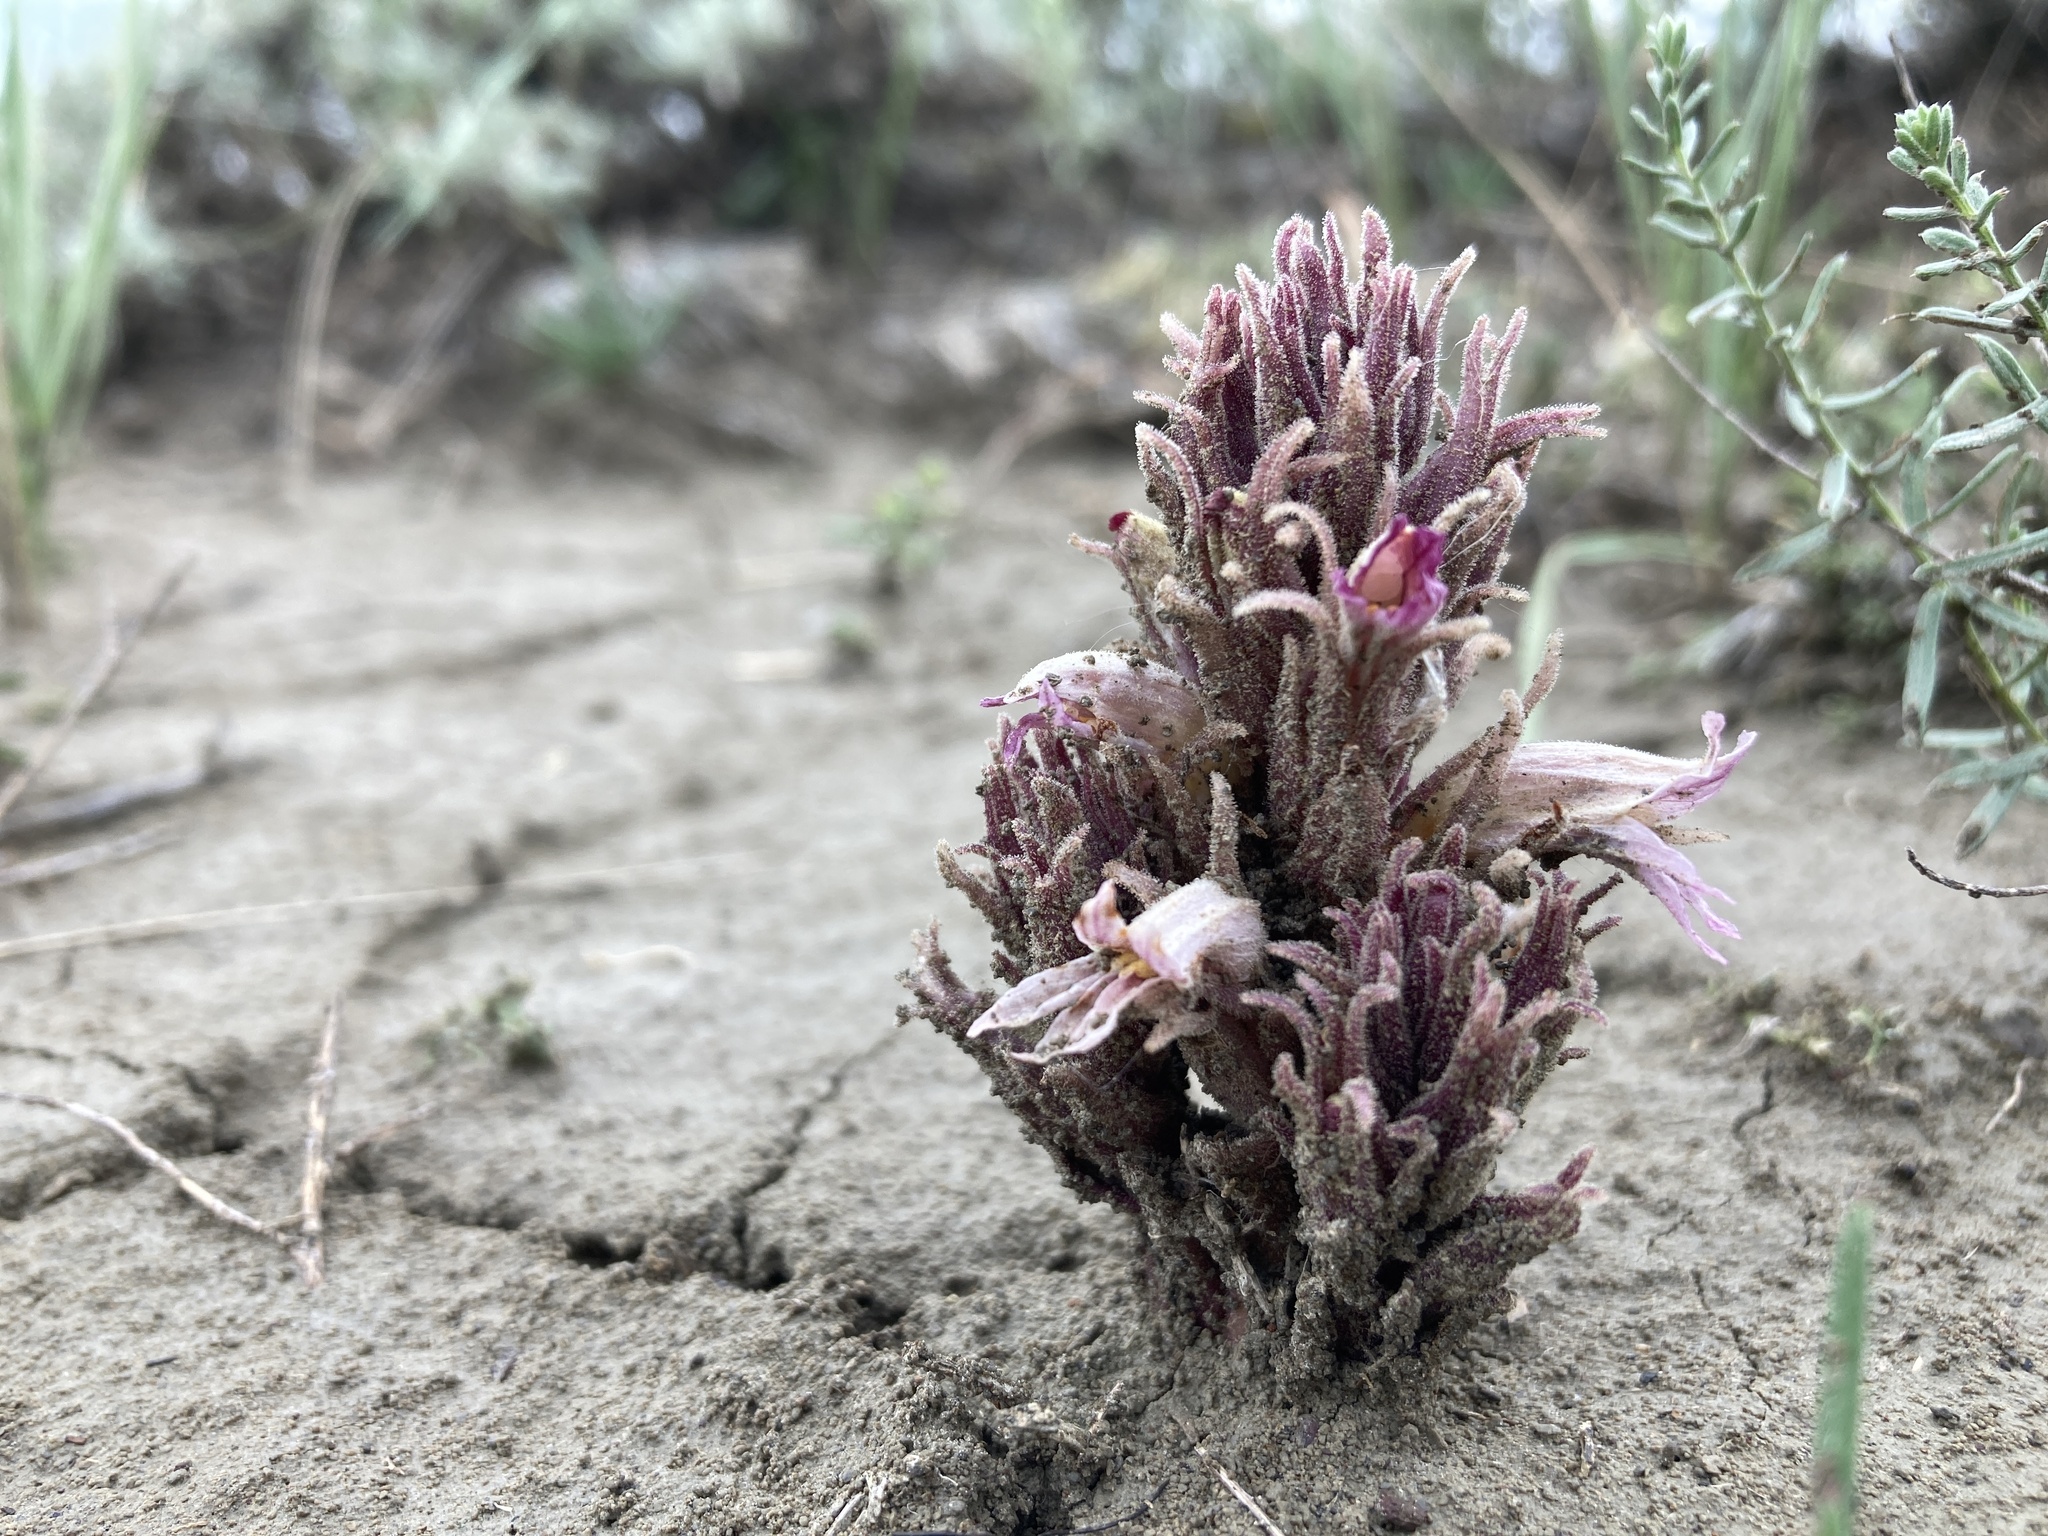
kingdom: Plantae
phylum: Tracheophyta
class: Magnoliopsida
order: Lamiales
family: Orobanchaceae
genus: Aphyllon
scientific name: Aphyllon corymbosum
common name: Flat-top broomrape
